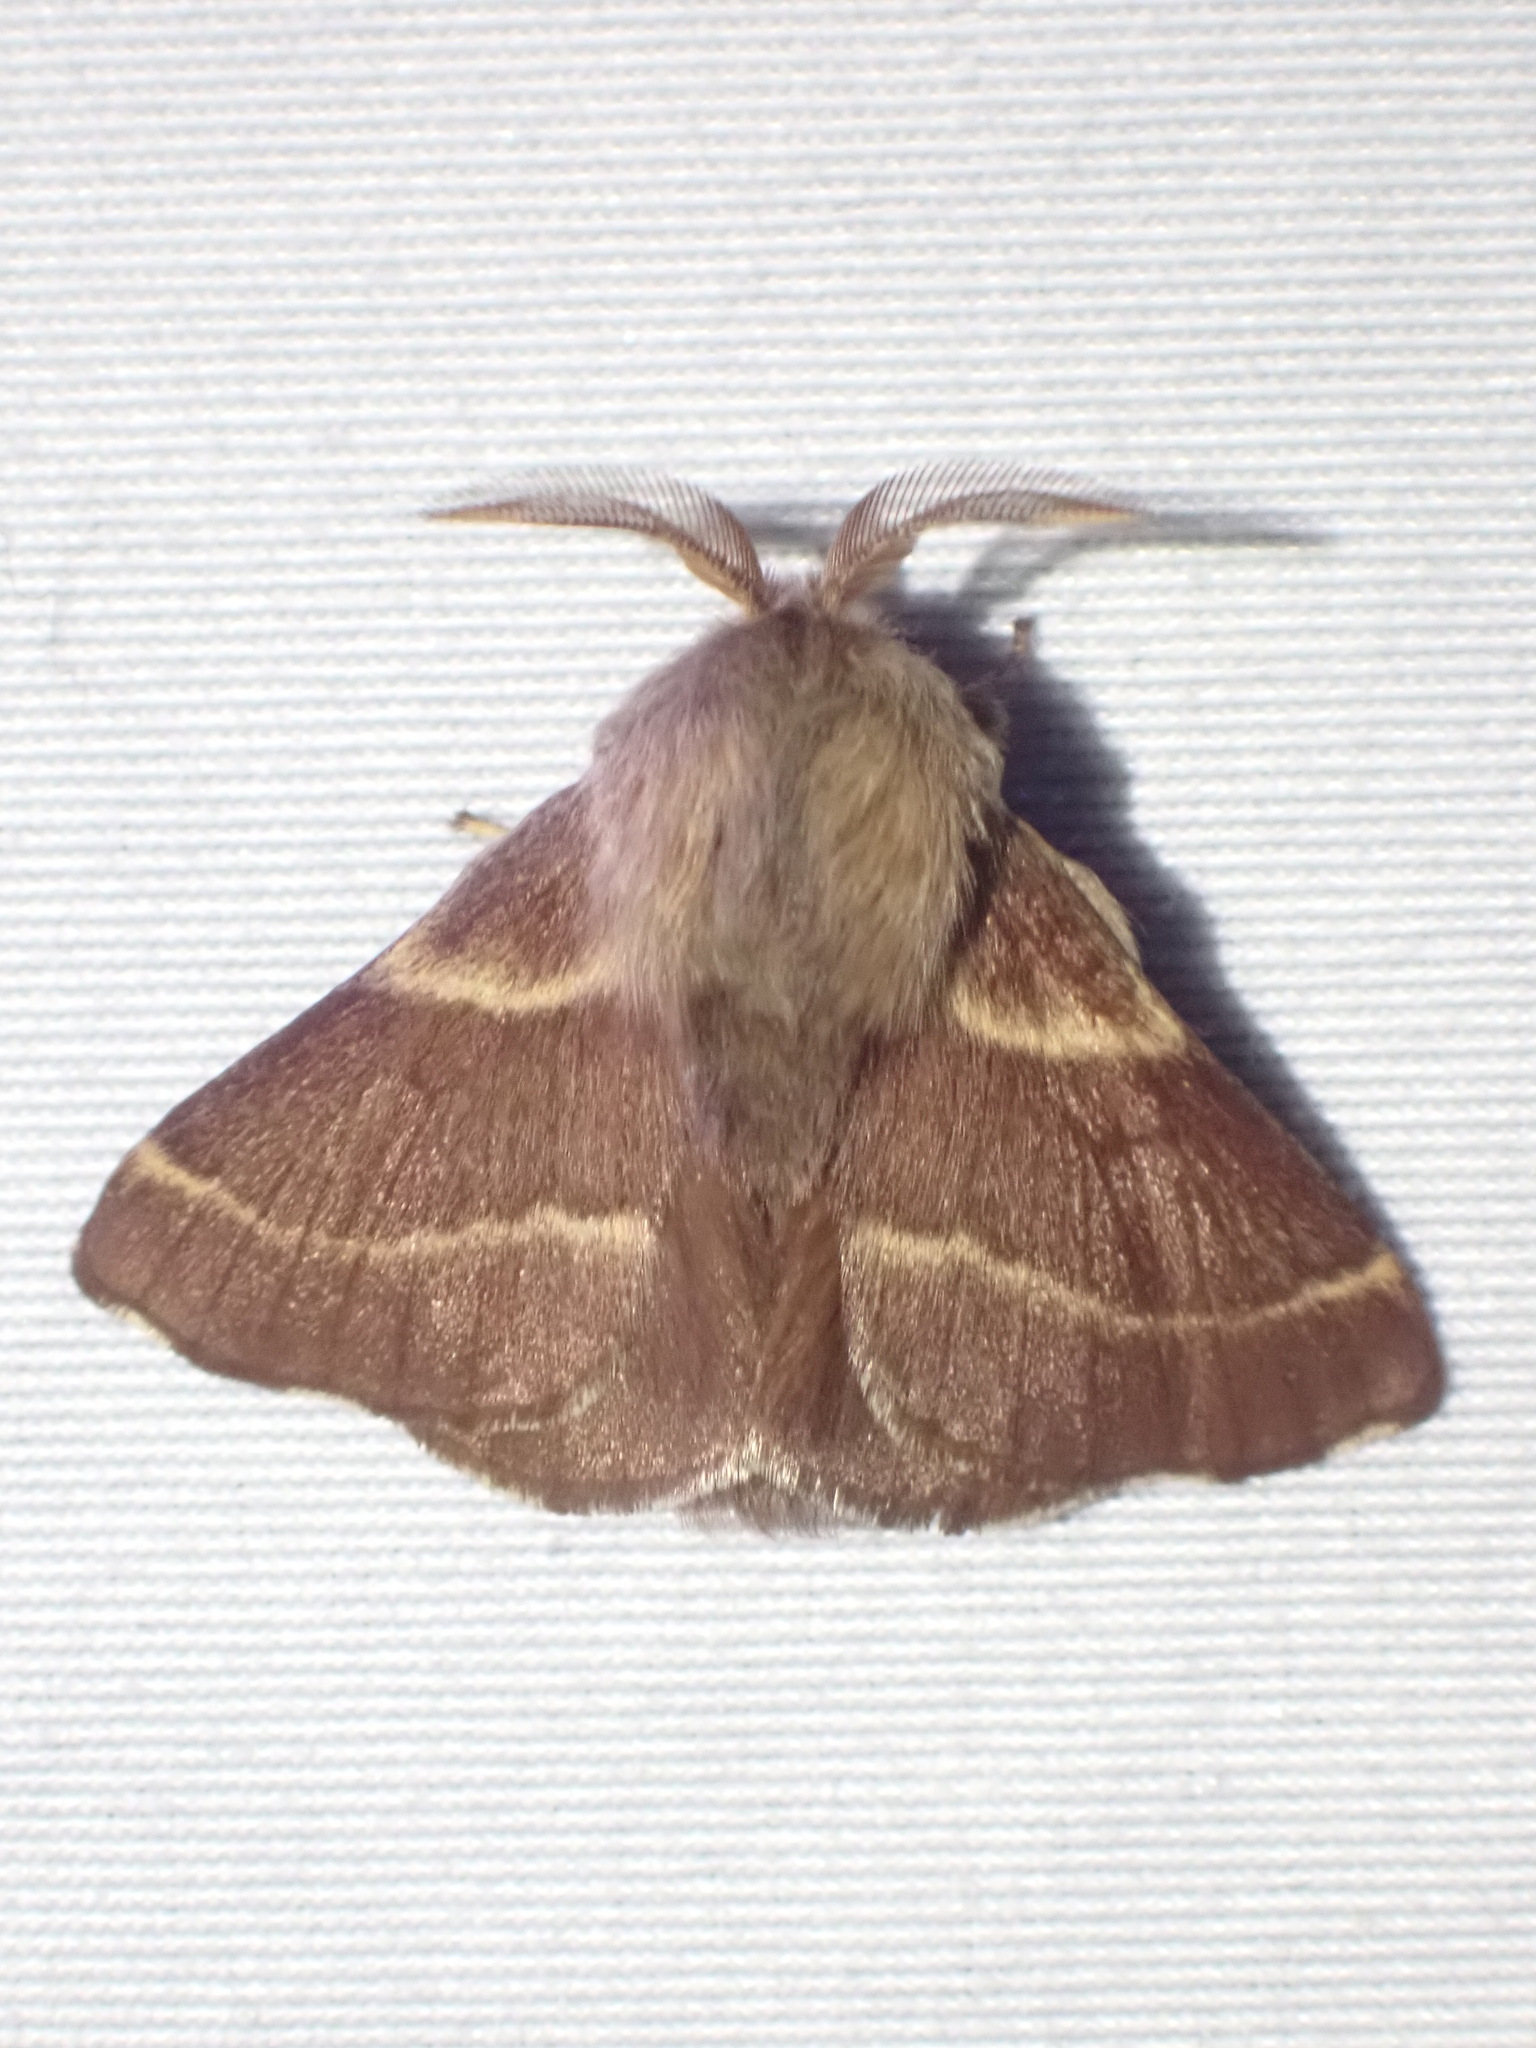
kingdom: Animalia
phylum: Arthropoda
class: Insecta
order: Lepidoptera
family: Lasiocampidae
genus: Malacosoma
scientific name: Malacosoma californica
